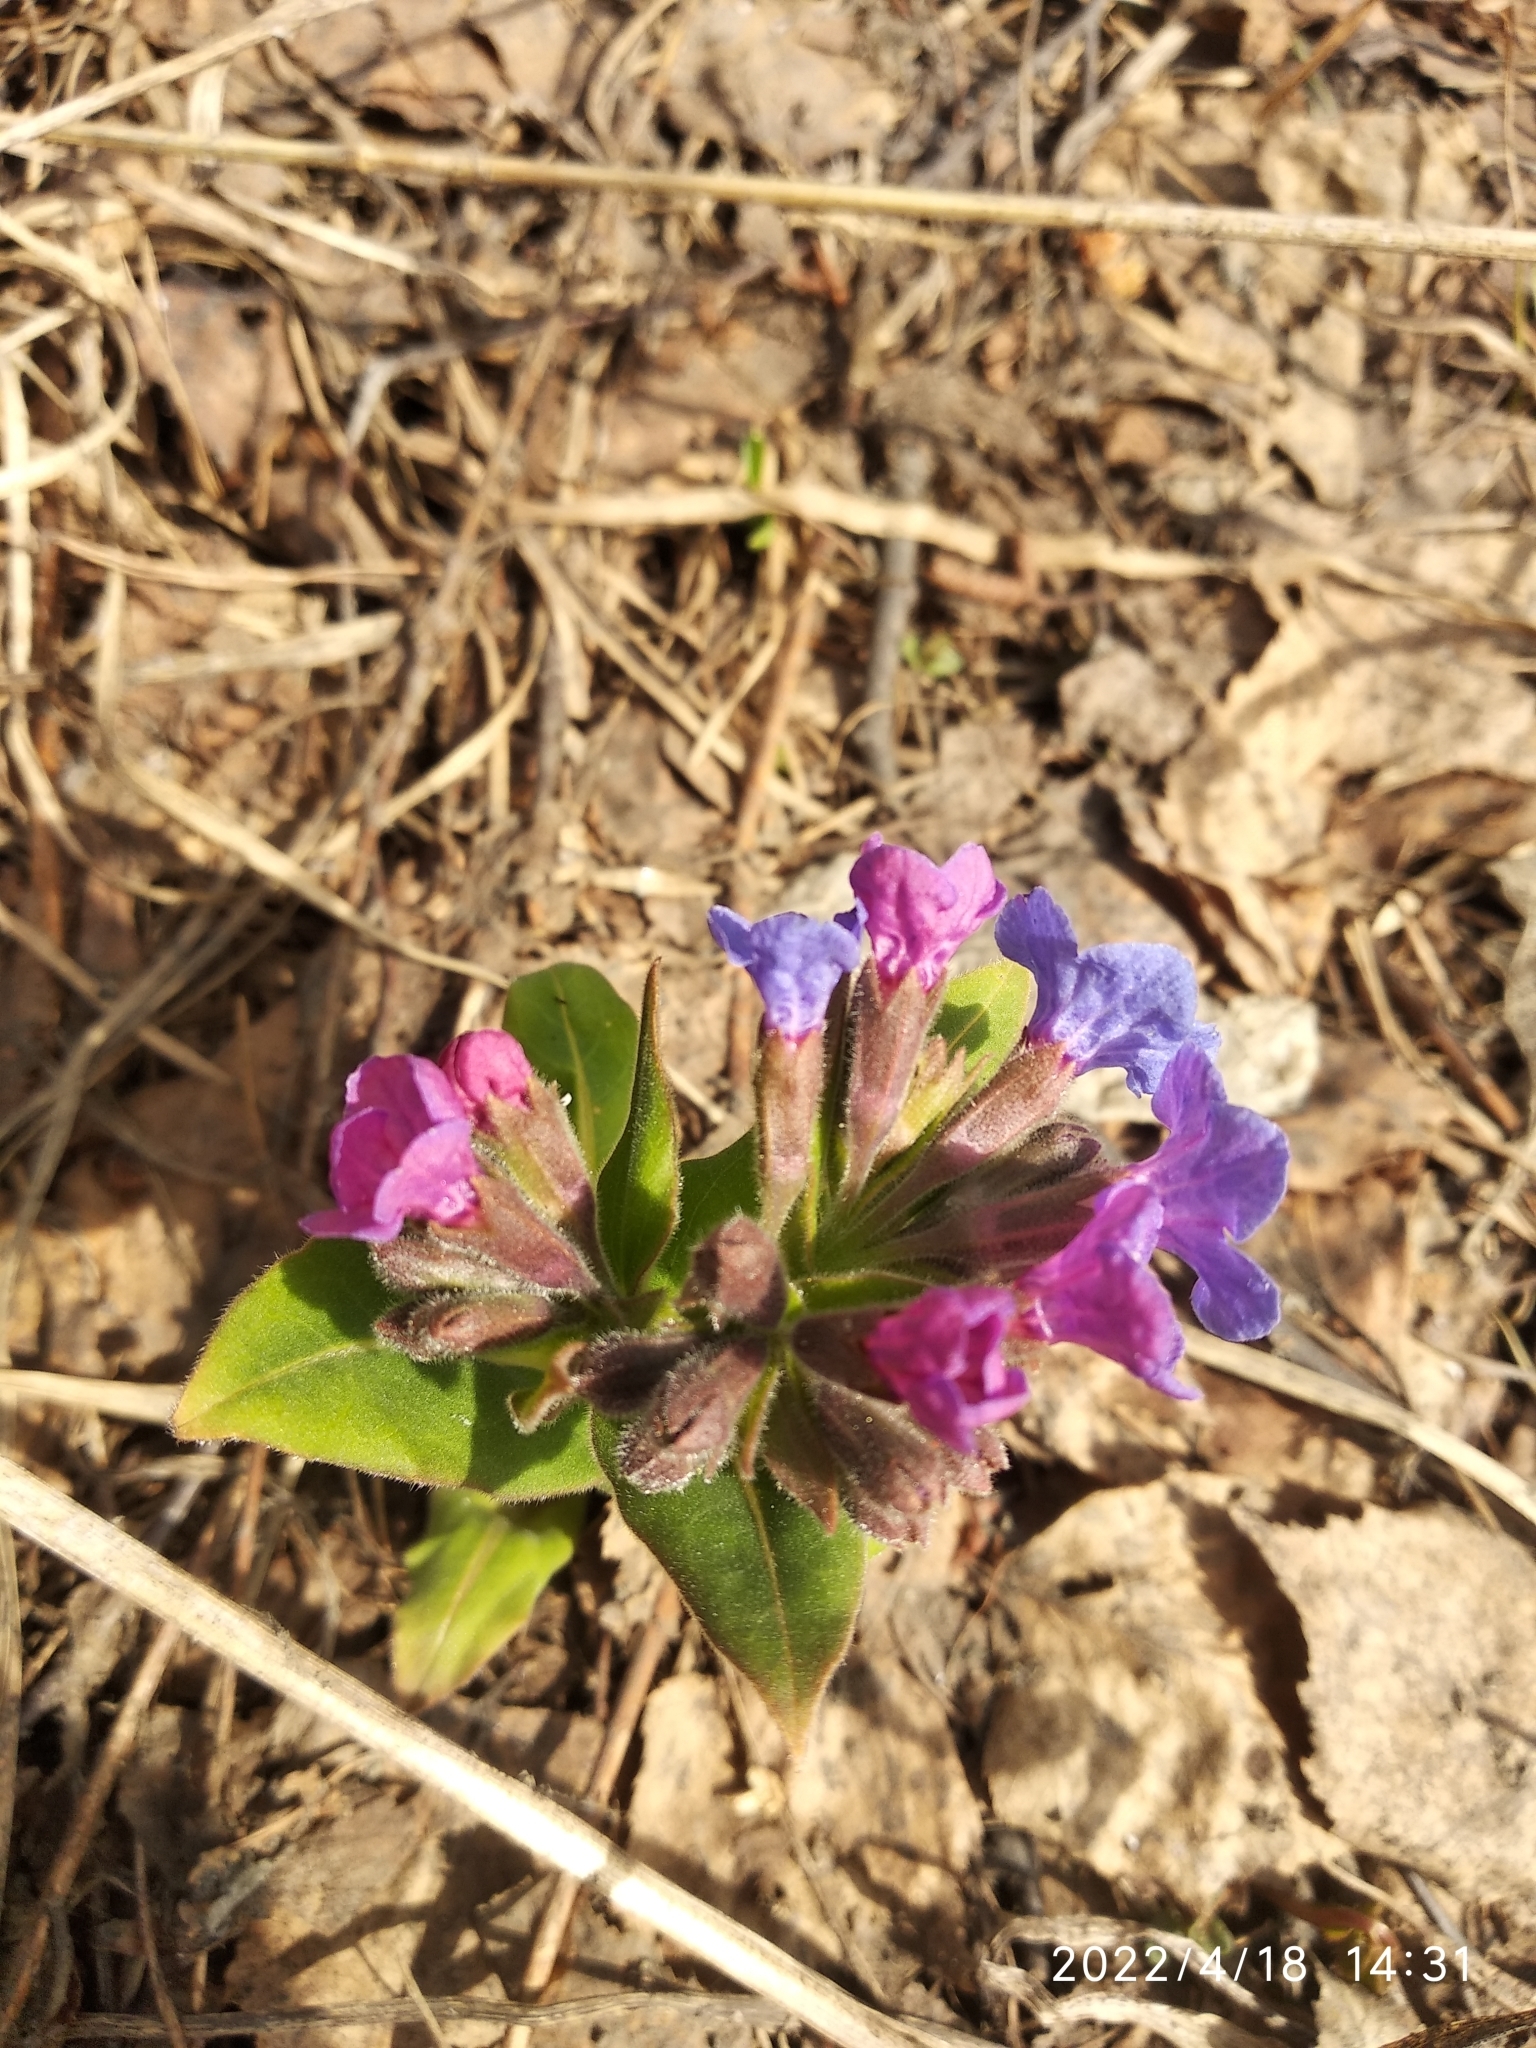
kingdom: Plantae
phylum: Tracheophyta
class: Magnoliopsida
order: Boraginales
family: Boraginaceae
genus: Pulmonaria
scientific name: Pulmonaria mollis
